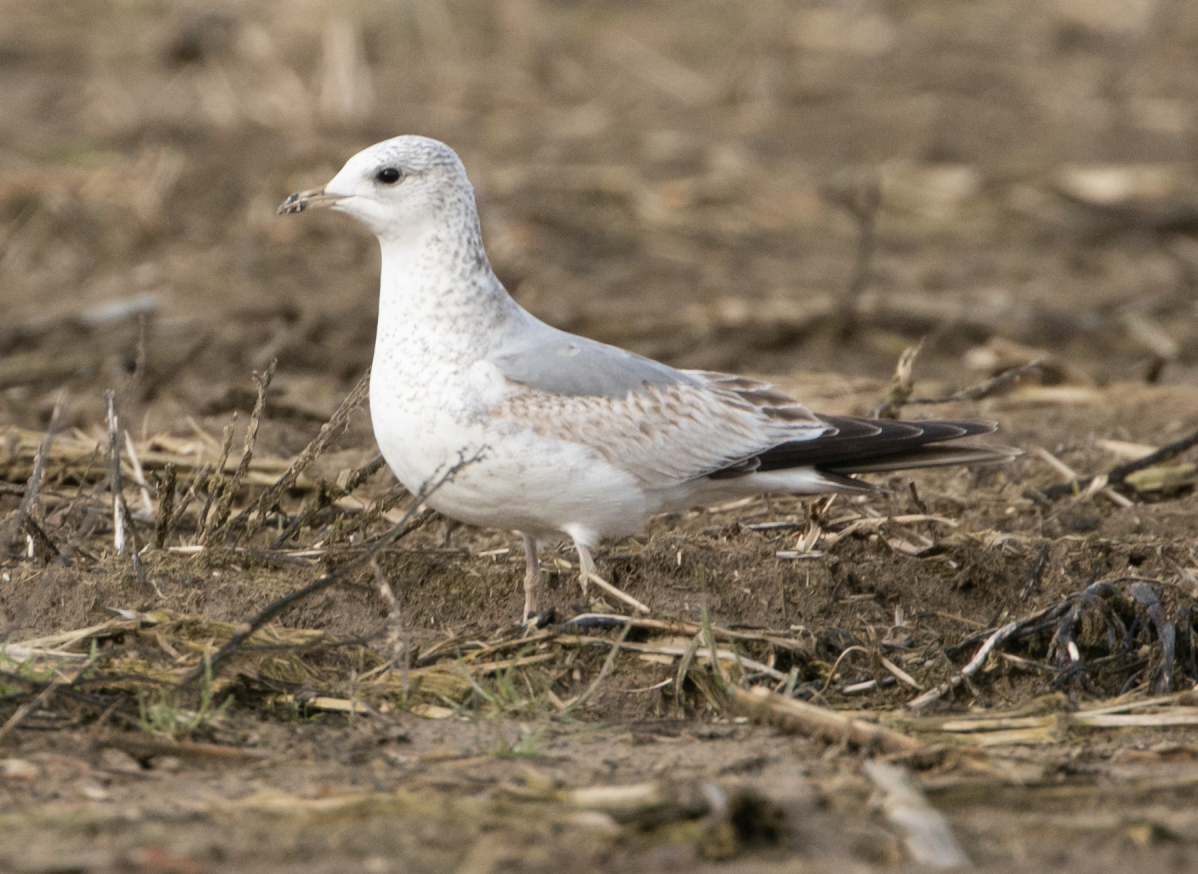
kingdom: Animalia
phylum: Chordata
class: Aves
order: Charadriiformes
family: Laridae
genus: Larus
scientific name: Larus canus
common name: Mew gull
